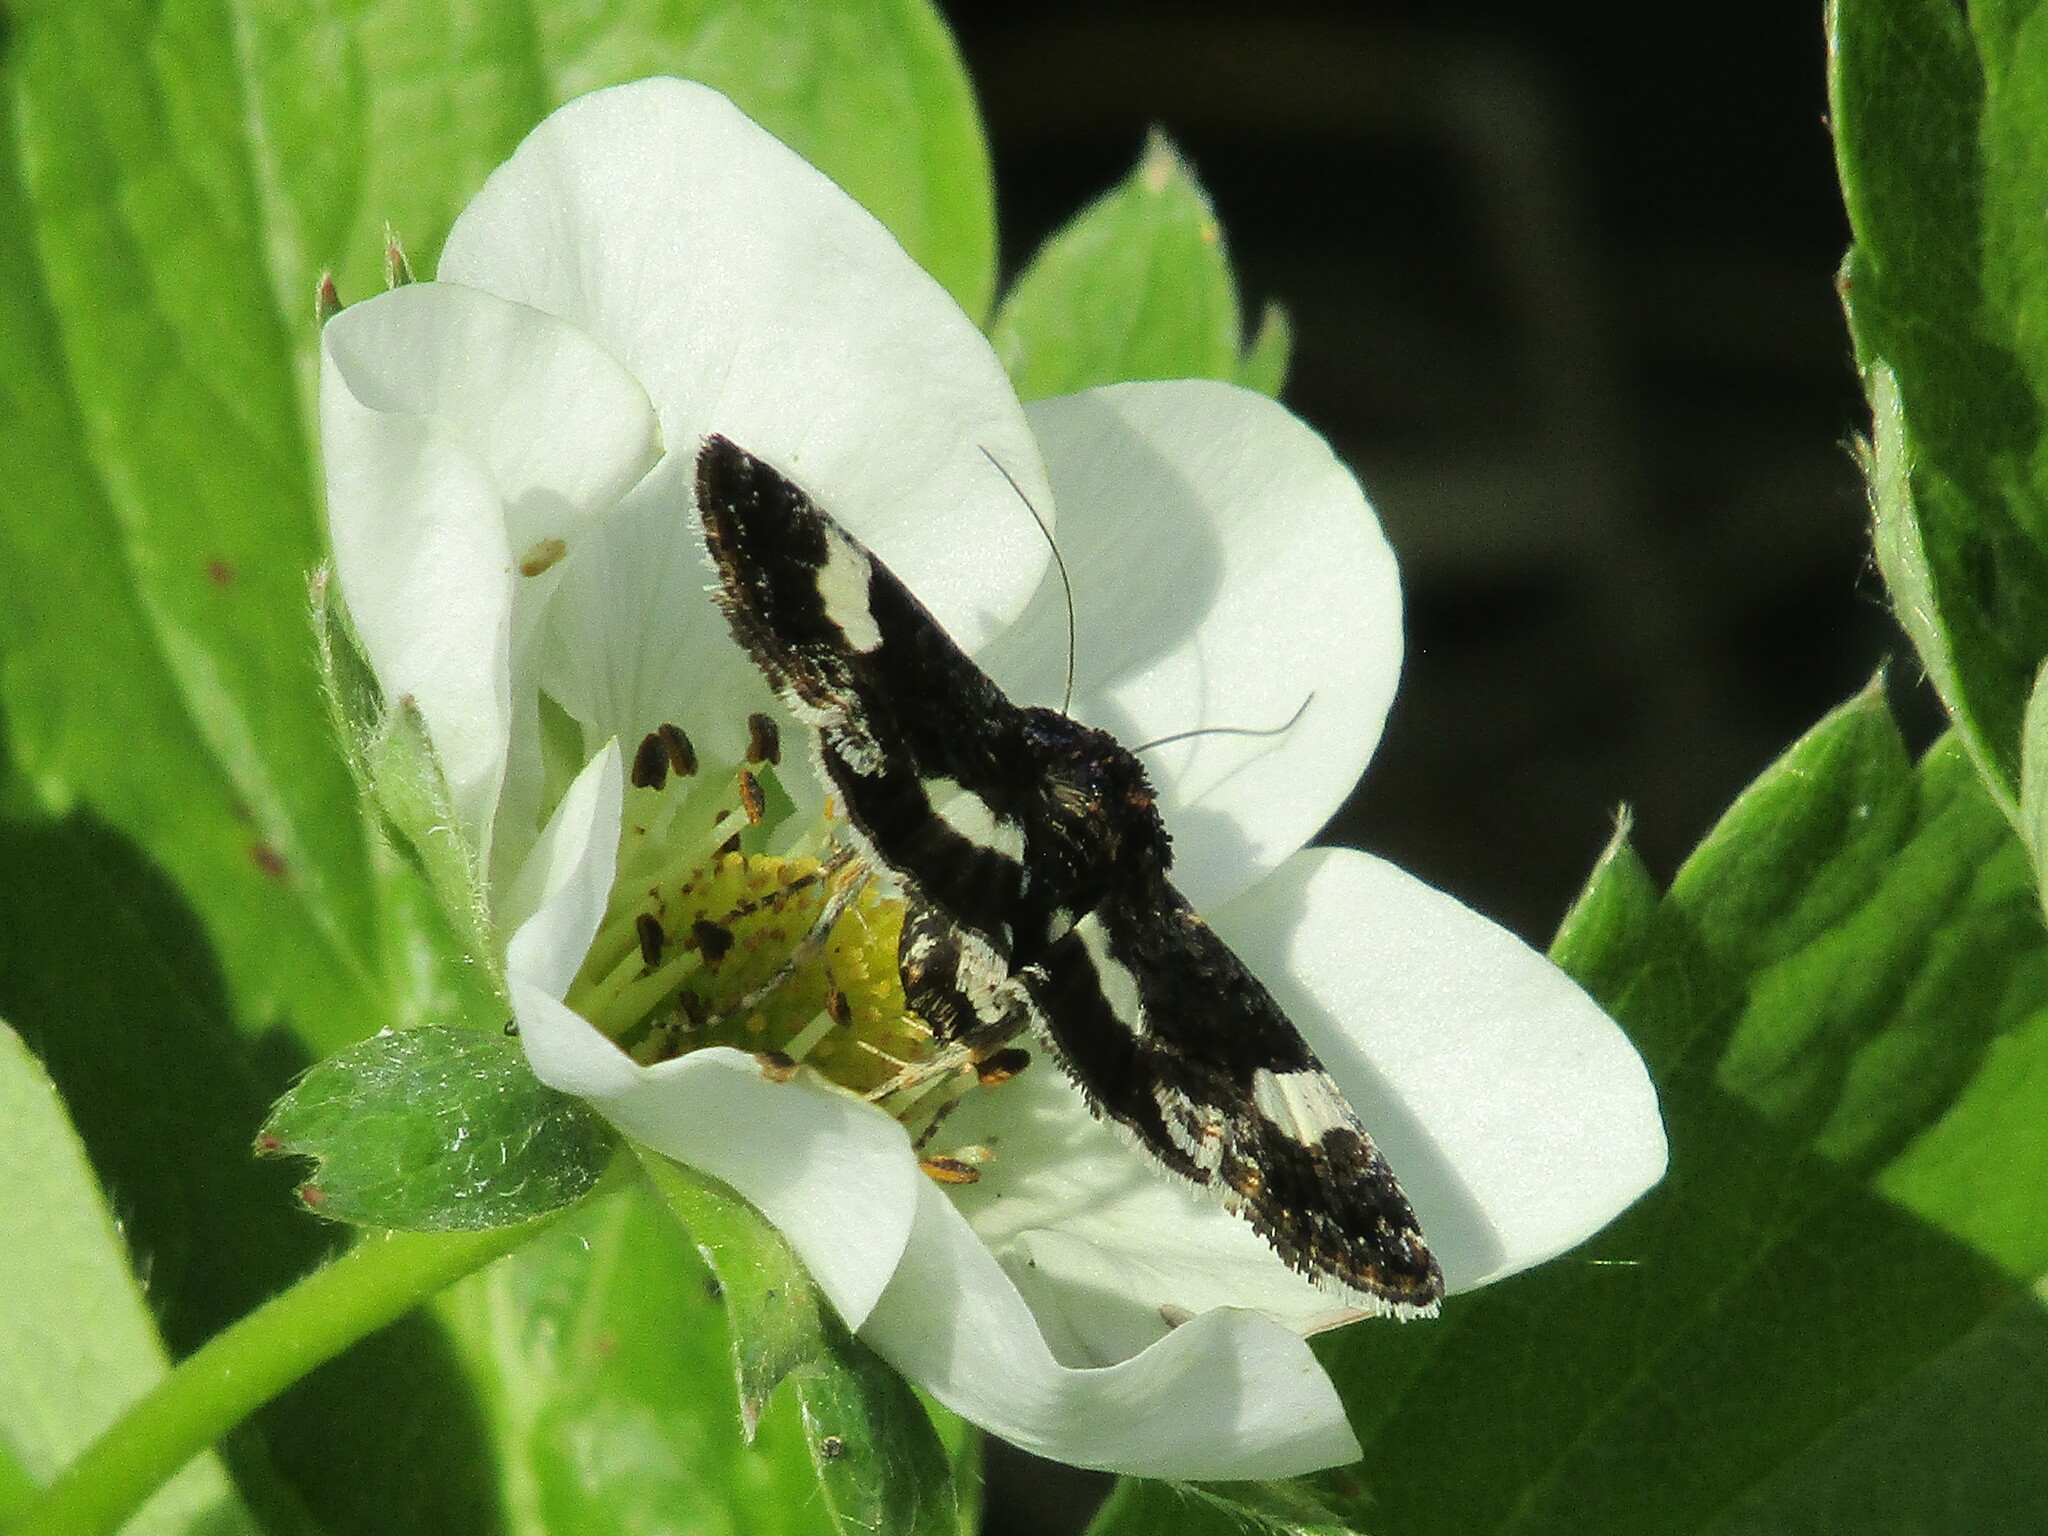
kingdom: Animalia
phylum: Arthropoda
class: Insecta
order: Lepidoptera
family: Erebidae
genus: Tyta
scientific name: Tyta luctuosa
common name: Four-spotted
